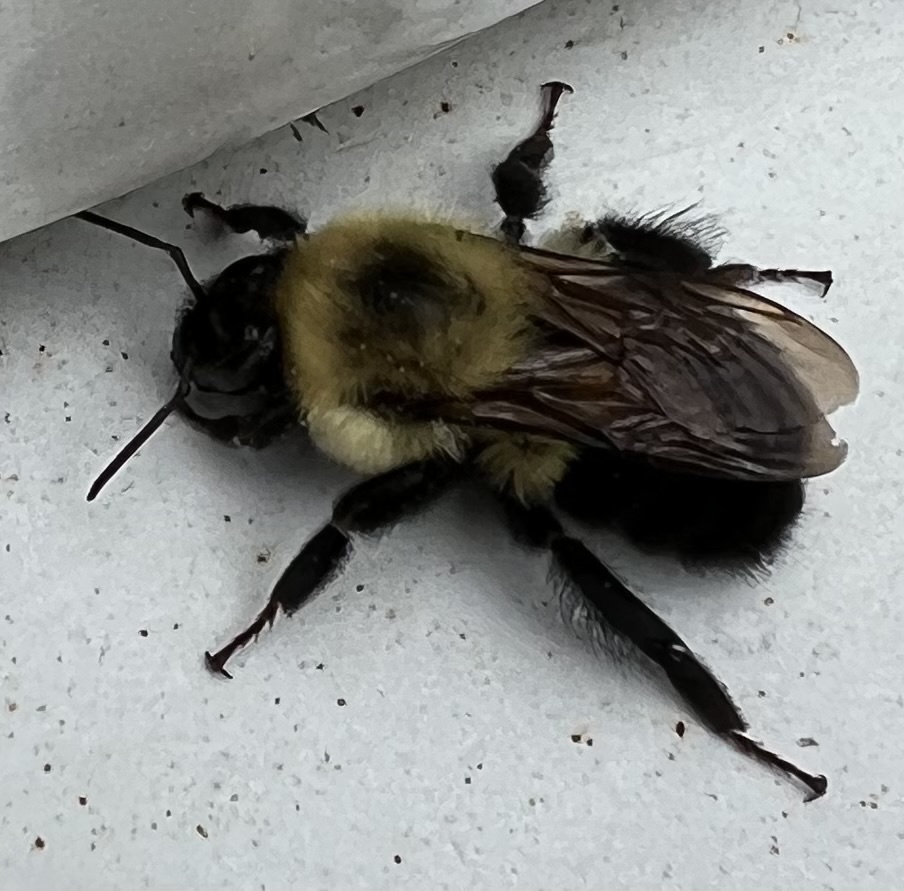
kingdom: Animalia
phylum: Arthropoda
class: Insecta
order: Hymenoptera
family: Apidae
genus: Bombus
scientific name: Bombus bimaculatus
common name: Two-spotted bumble bee
